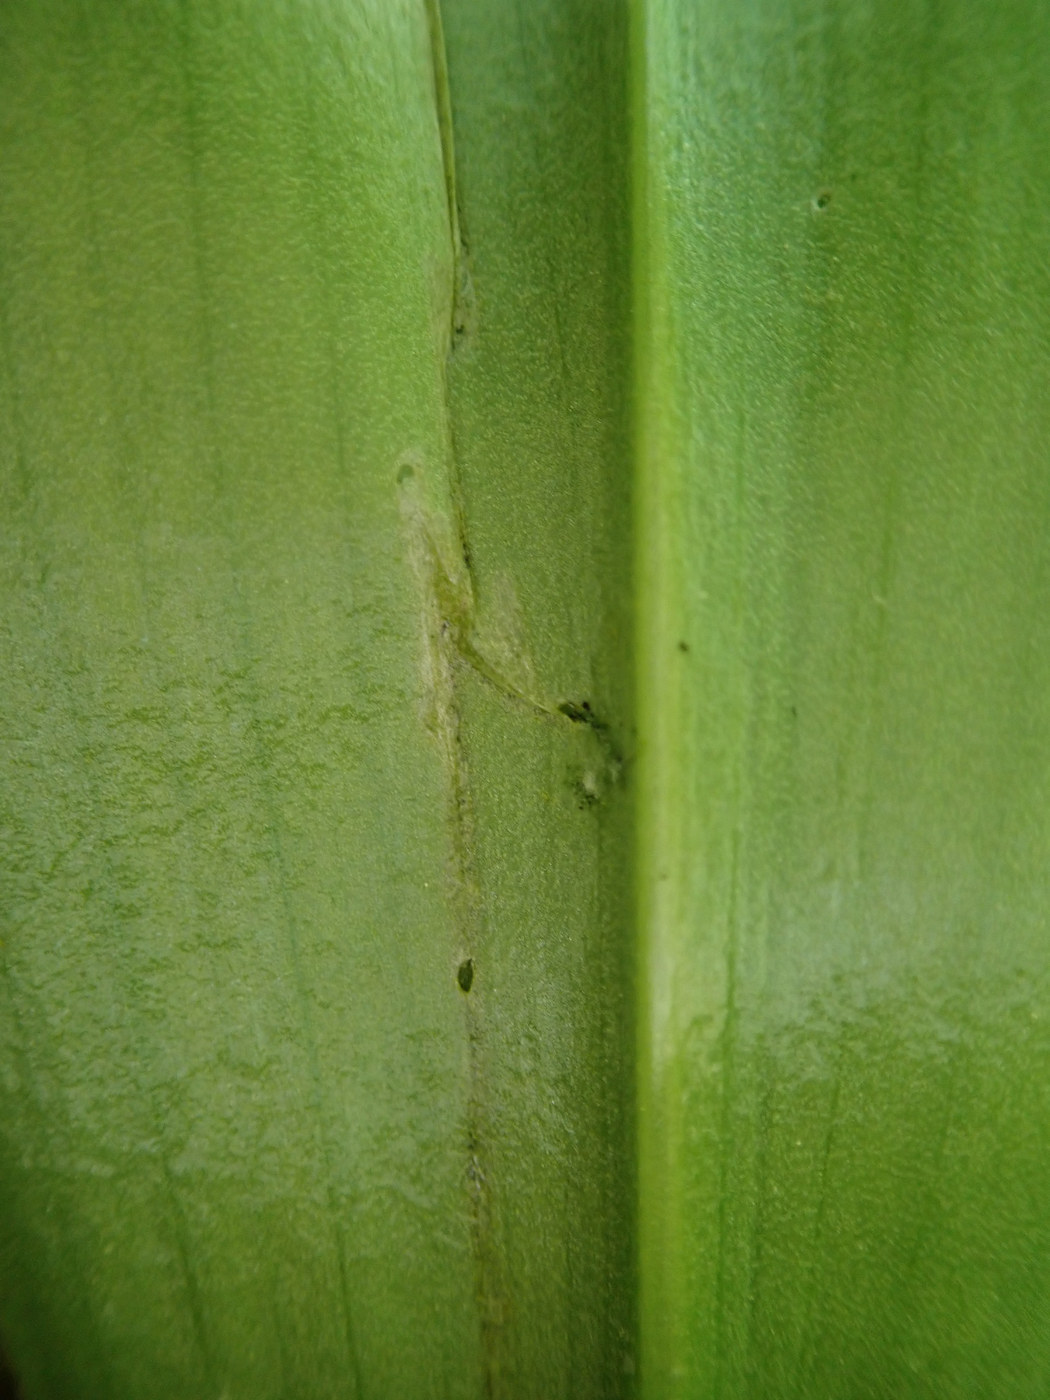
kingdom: Animalia
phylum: Arthropoda
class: Insecta
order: Diptera
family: Sciaridae
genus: Phytosciara
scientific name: Phytosciara greylockensis
